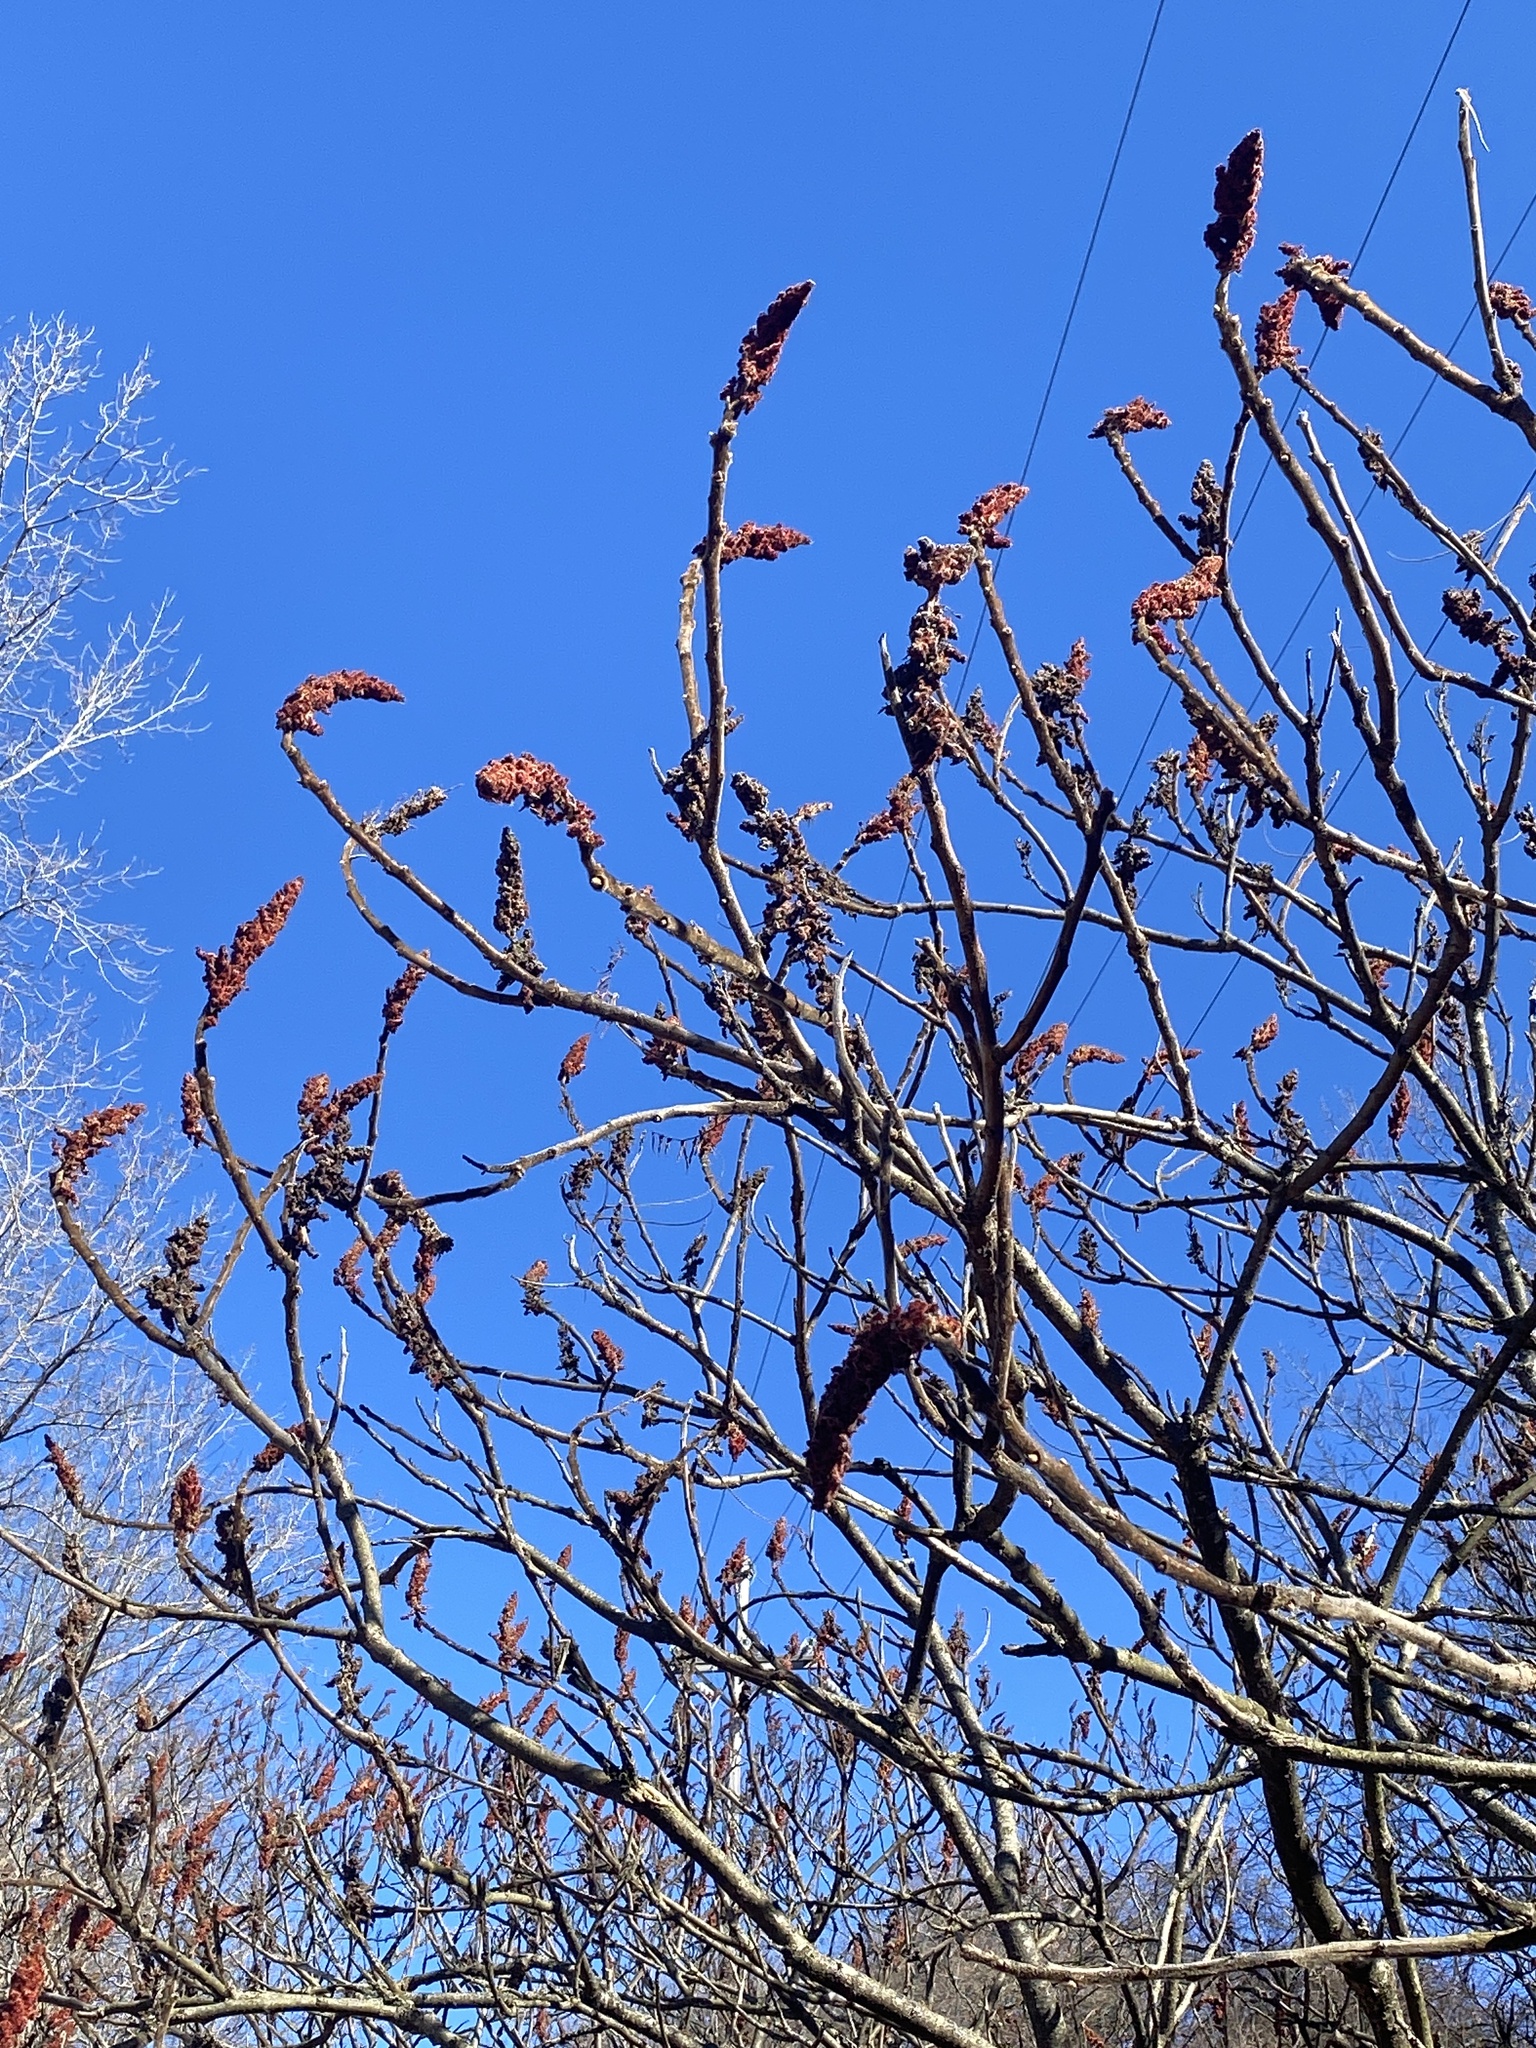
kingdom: Plantae
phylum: Tracheophyta
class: Magnoliopsida
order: Sapindales
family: Anacardiaceae
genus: Rhus
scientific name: Rhus typhina
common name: Staghorn sumac
